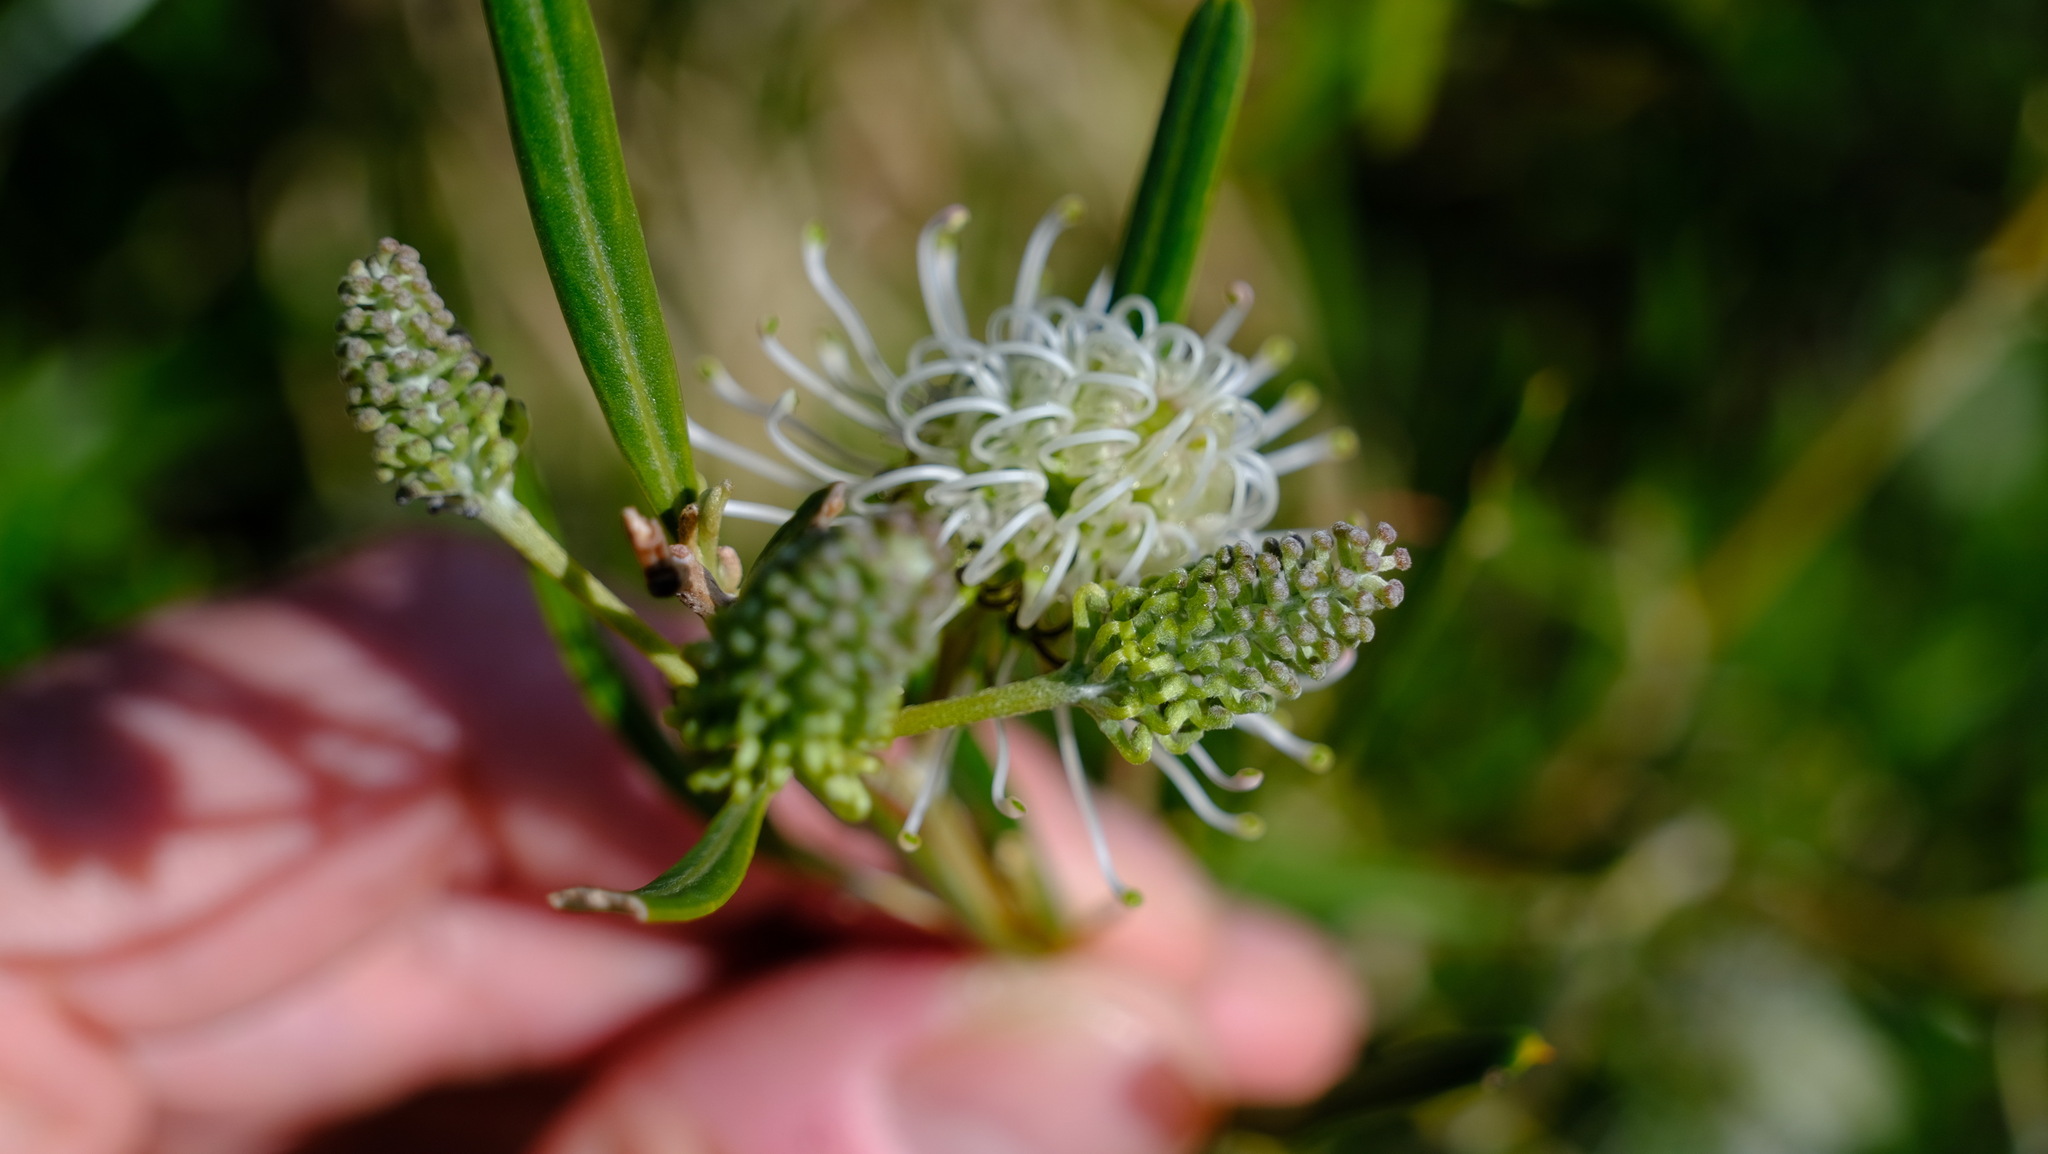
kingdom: Plantae
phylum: Tracheophyta
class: Magnoliopsida
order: Proteales
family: Proteaceae
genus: Grevillea
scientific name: Grevillea commutata
